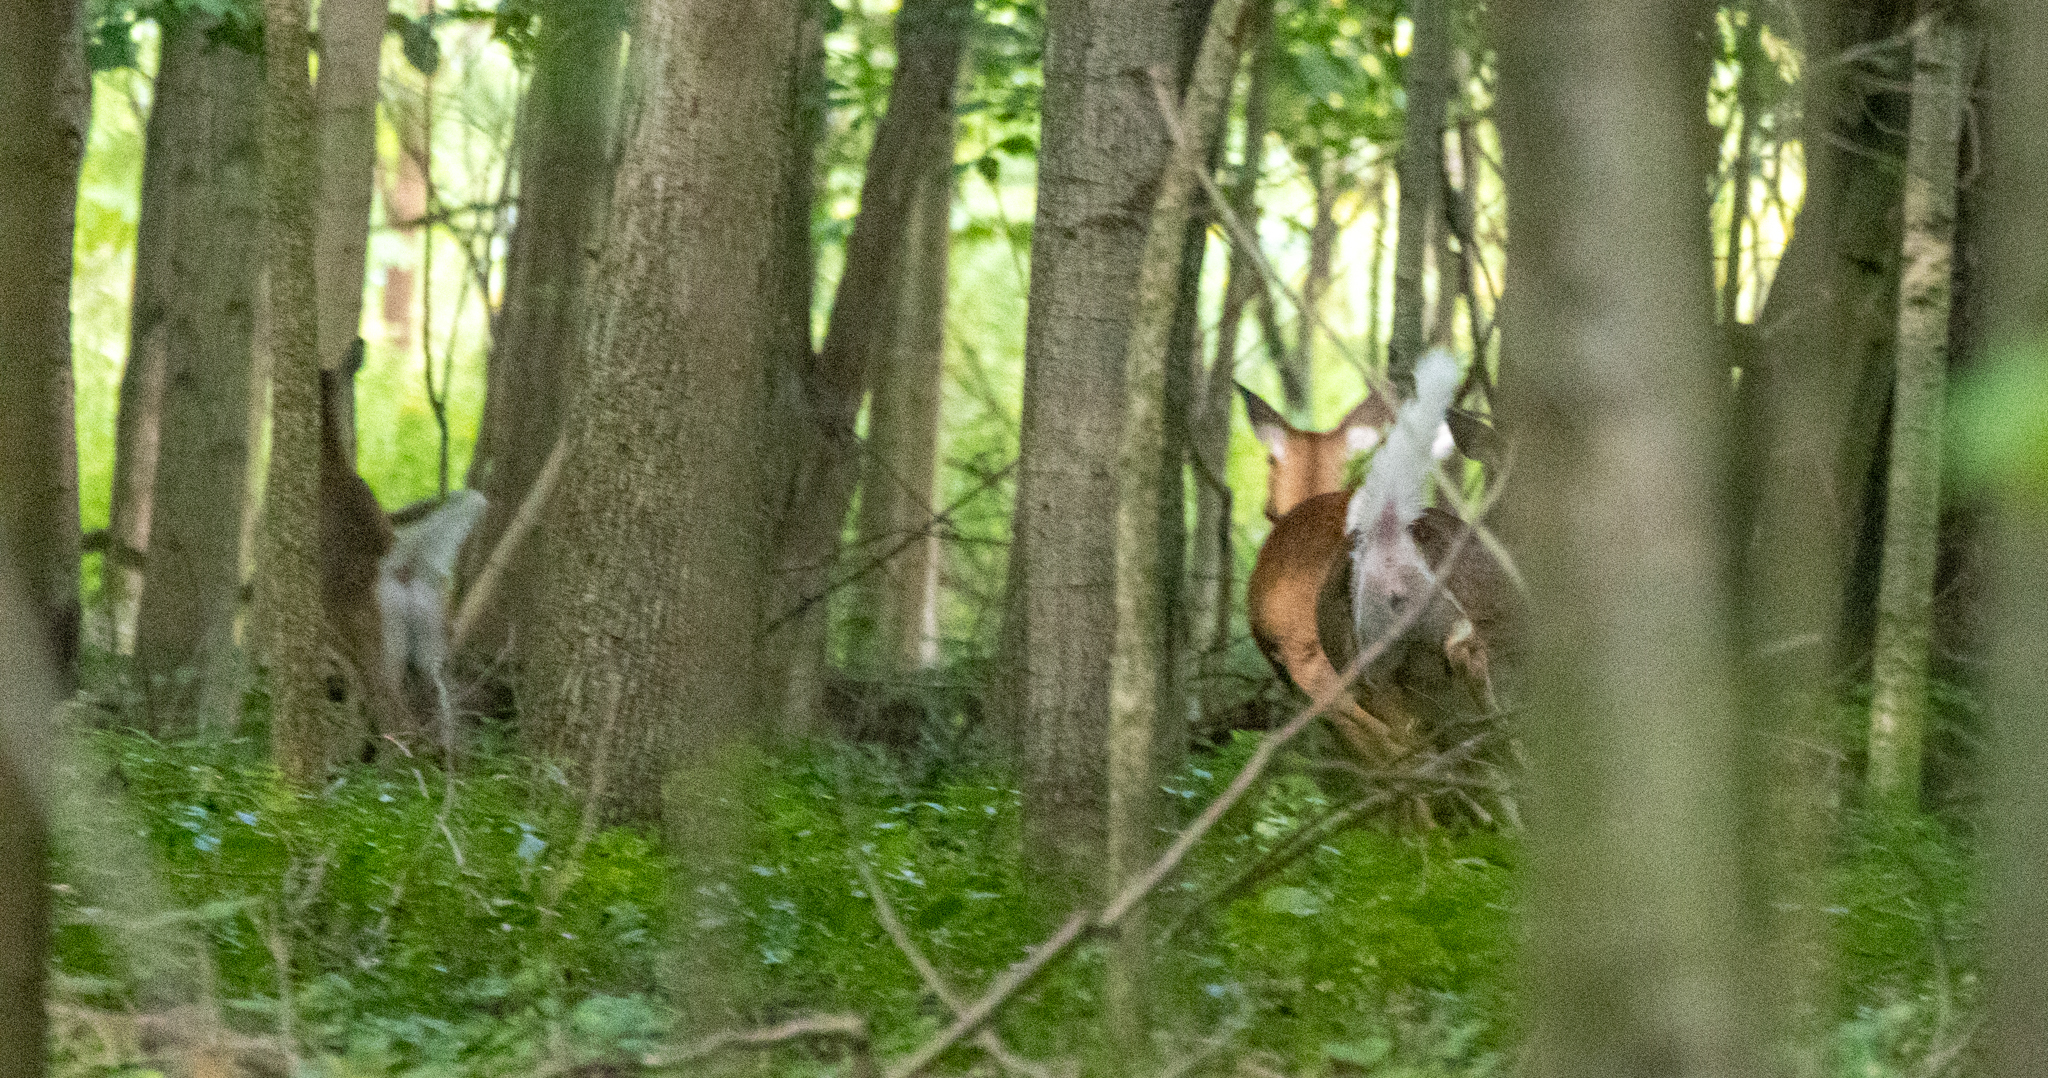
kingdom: Animalia
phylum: Chordata
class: Mammalia
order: Artiodactyla
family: Cervidae
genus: Odocoileus
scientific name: Odocoileus virginianus
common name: White-tailed deer
